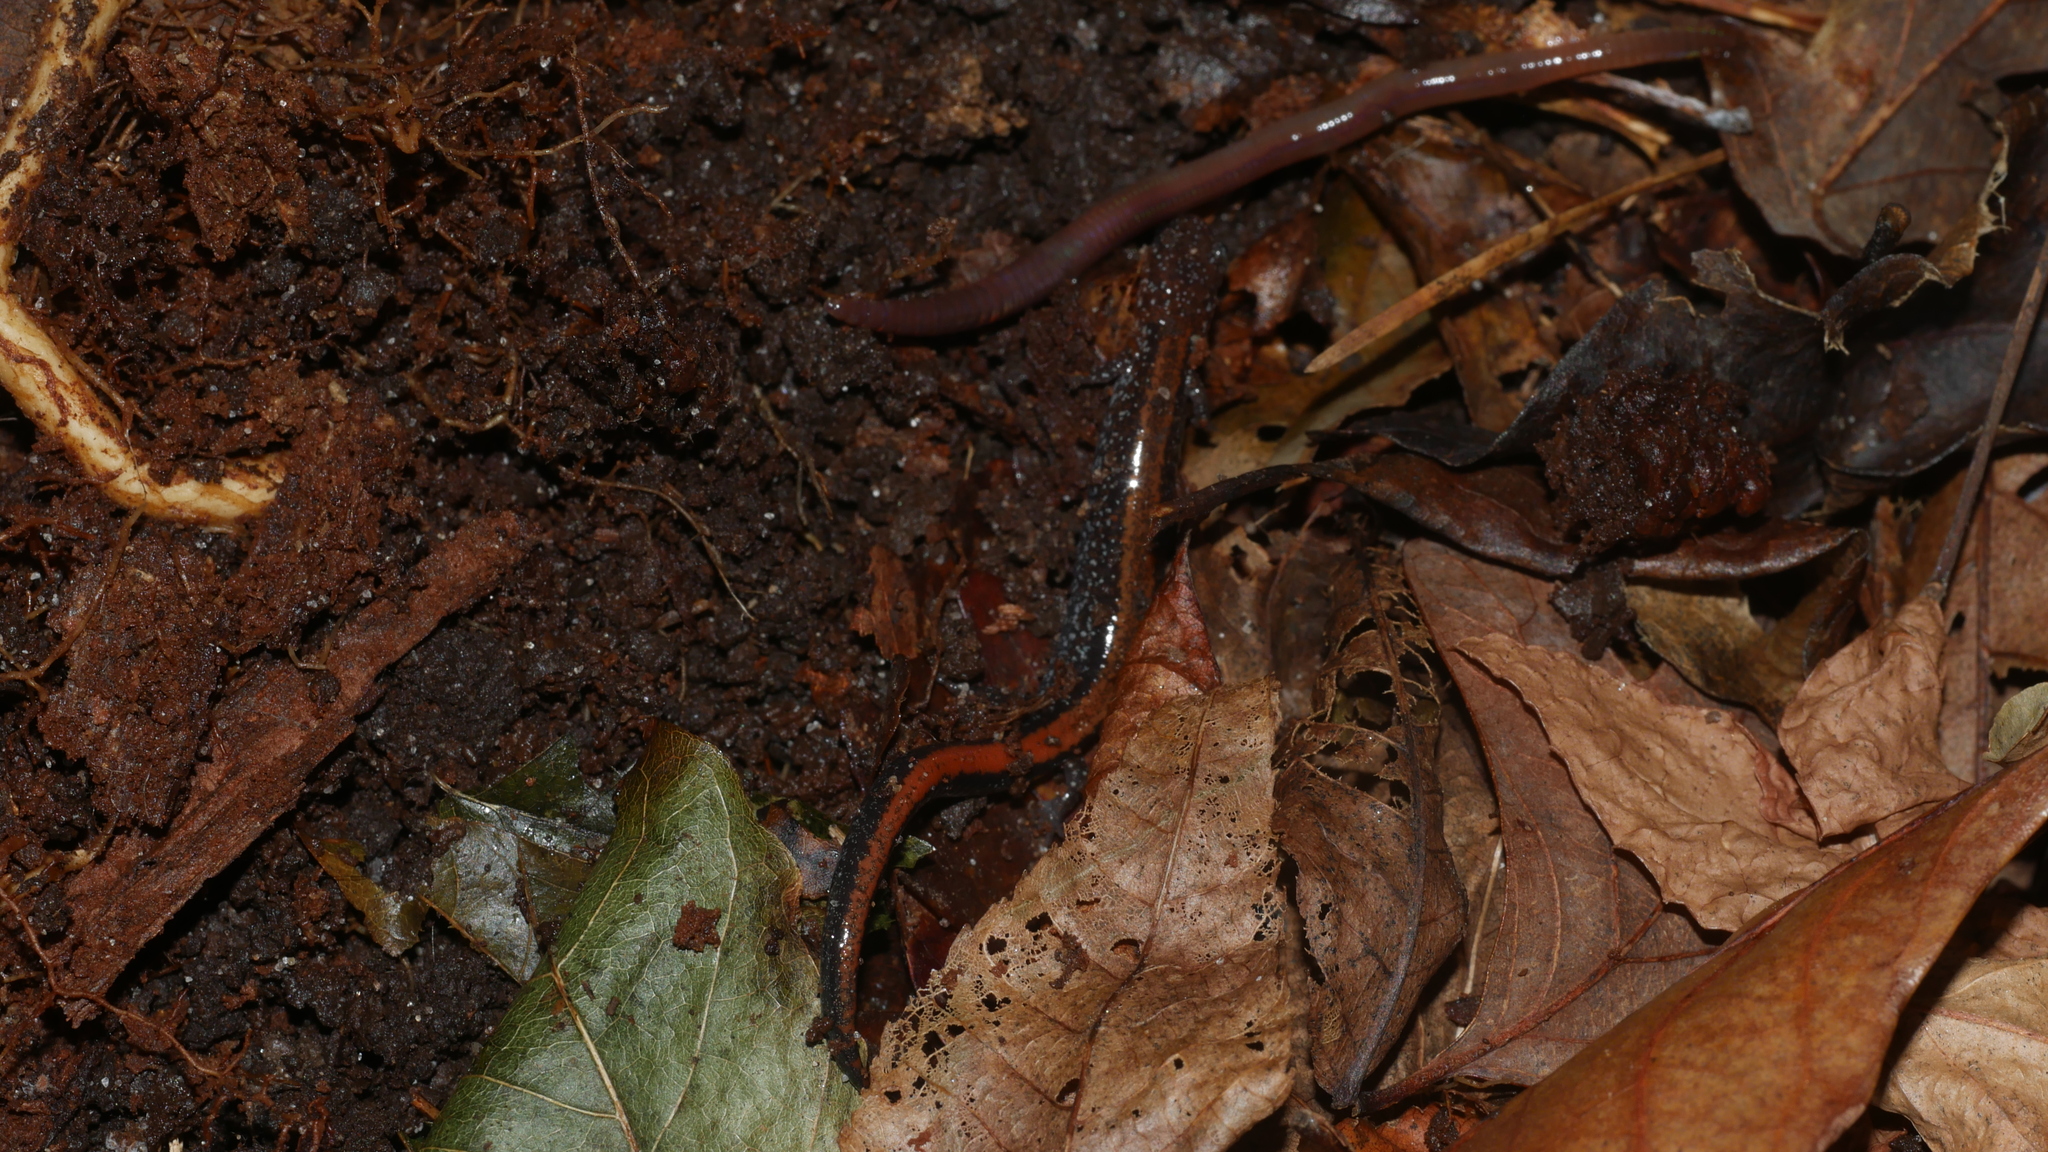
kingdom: Animalia
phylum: Chordata
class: Amphibia
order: Caudata
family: Plethodontidae
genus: Plethodon
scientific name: Plethodon cinereus
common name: Redback salamander
